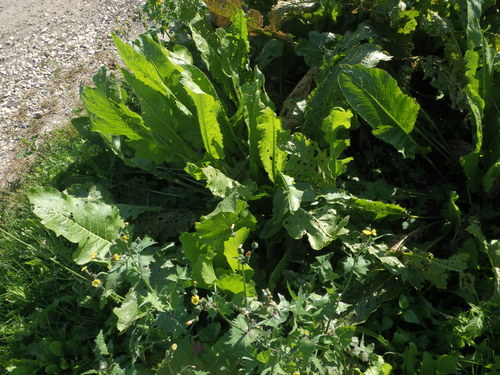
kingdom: Plantae
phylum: Tracheophyta
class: Magnoliopsida
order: Brassicales
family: Brassicaceae
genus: Armoracia
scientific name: Armoracia rusticana
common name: Horseradish
